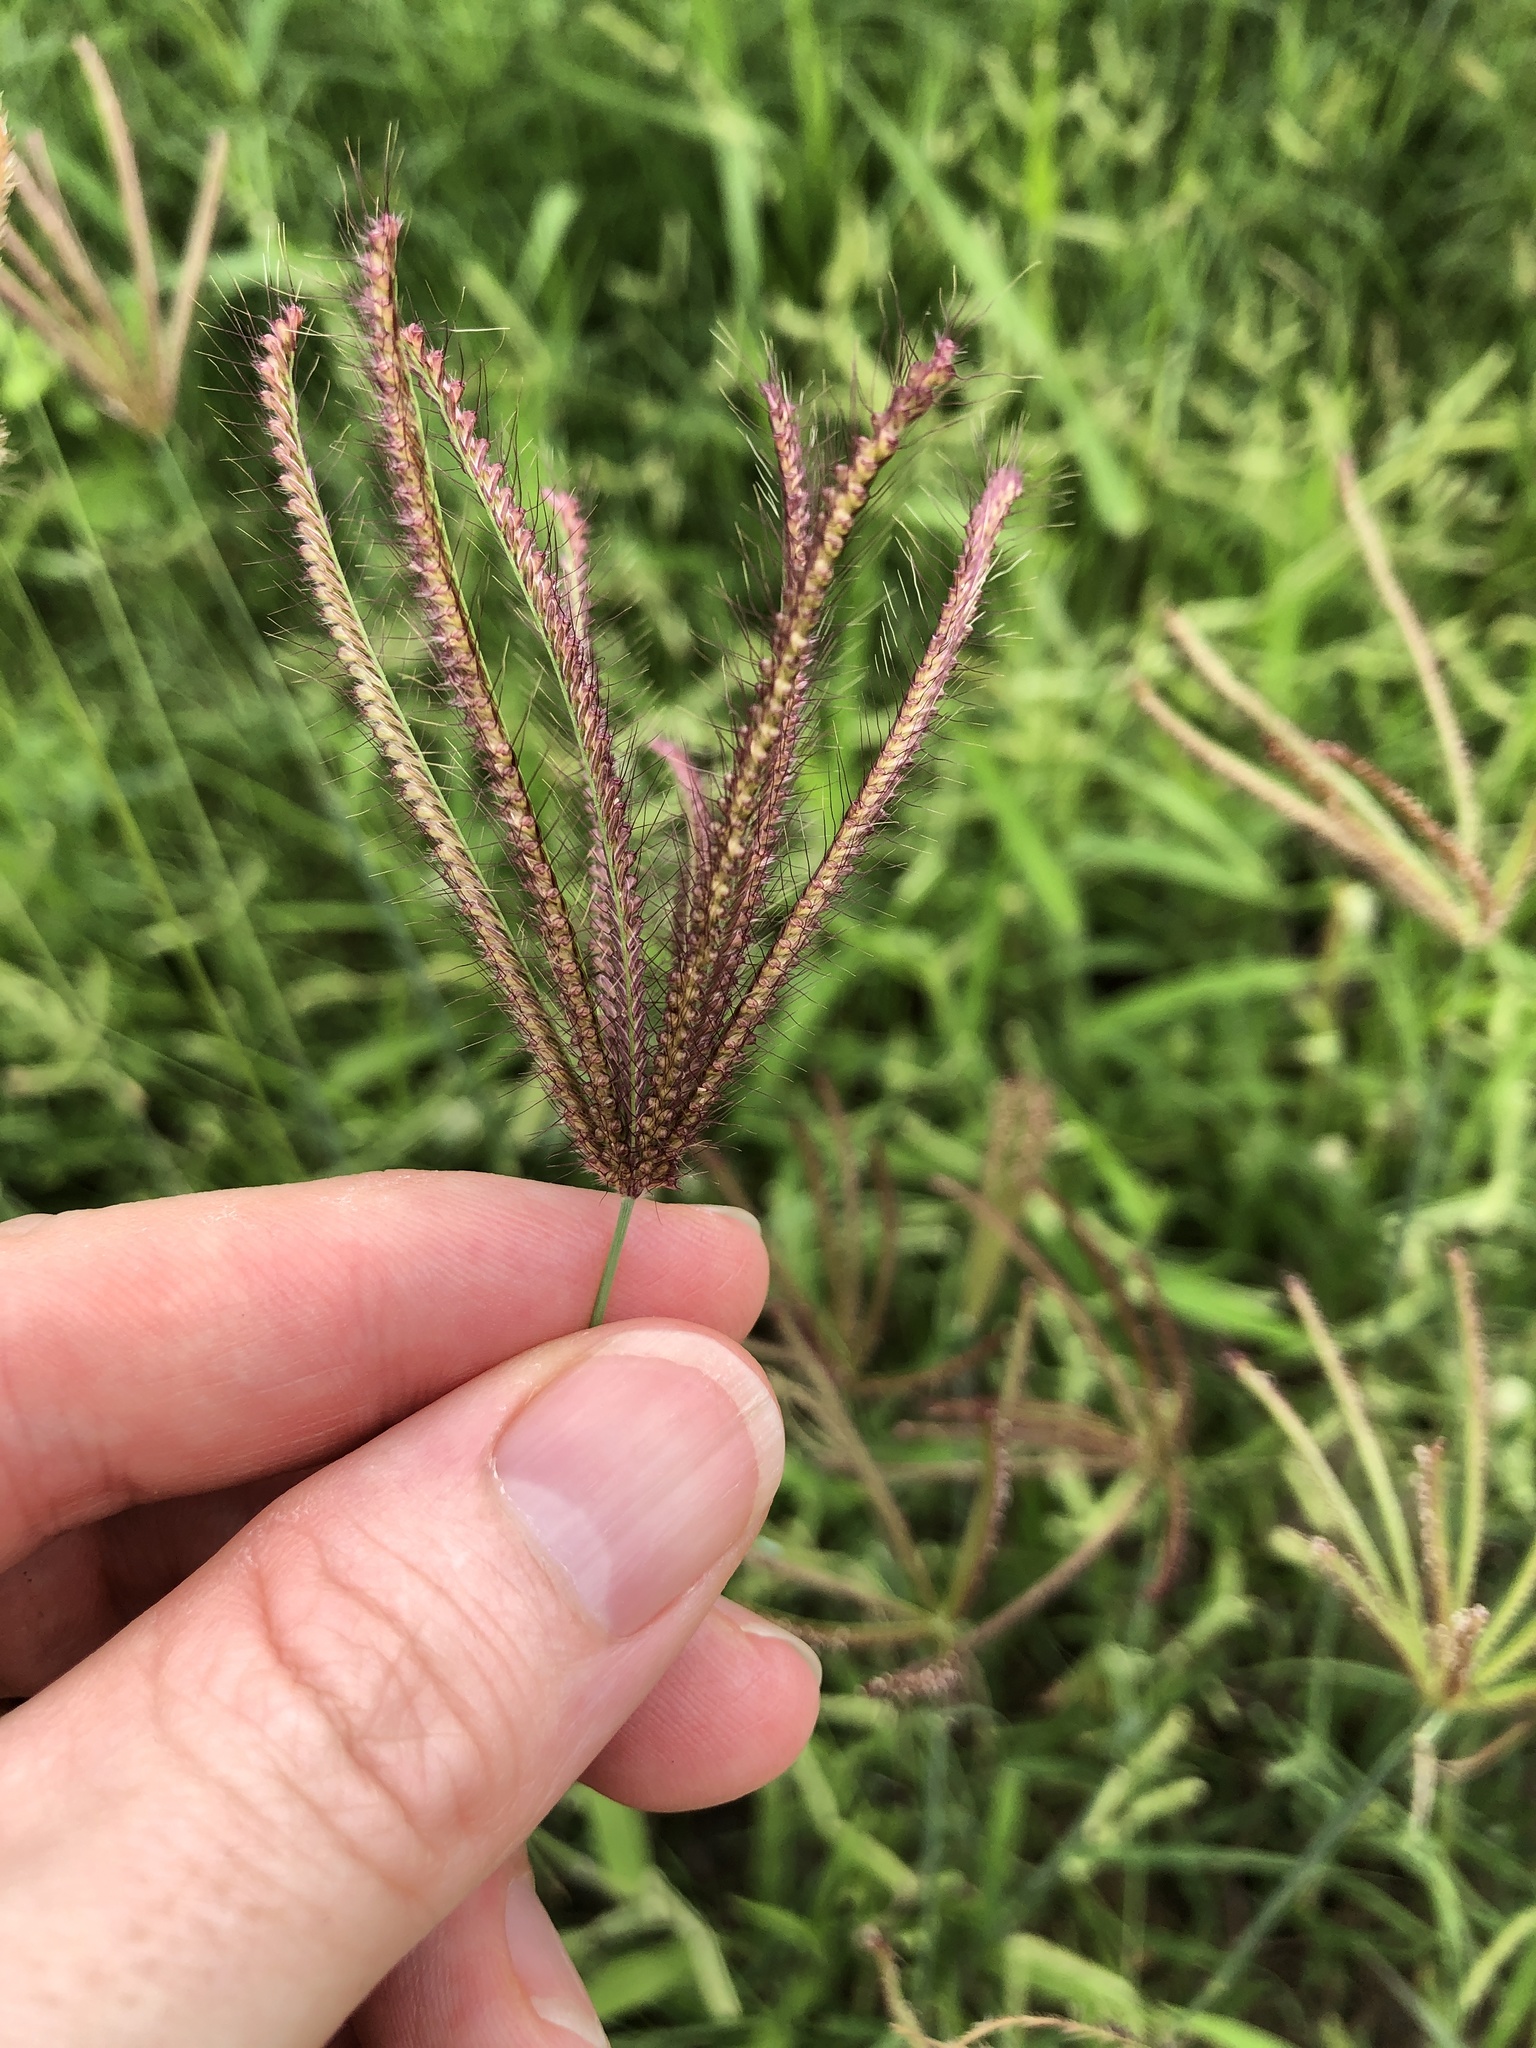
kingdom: Plantae
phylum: Tracheophyta
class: Liliopsida
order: Poales
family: Poaceae
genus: Chloris
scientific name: Chloris barbata
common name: Swollen fingergrass
